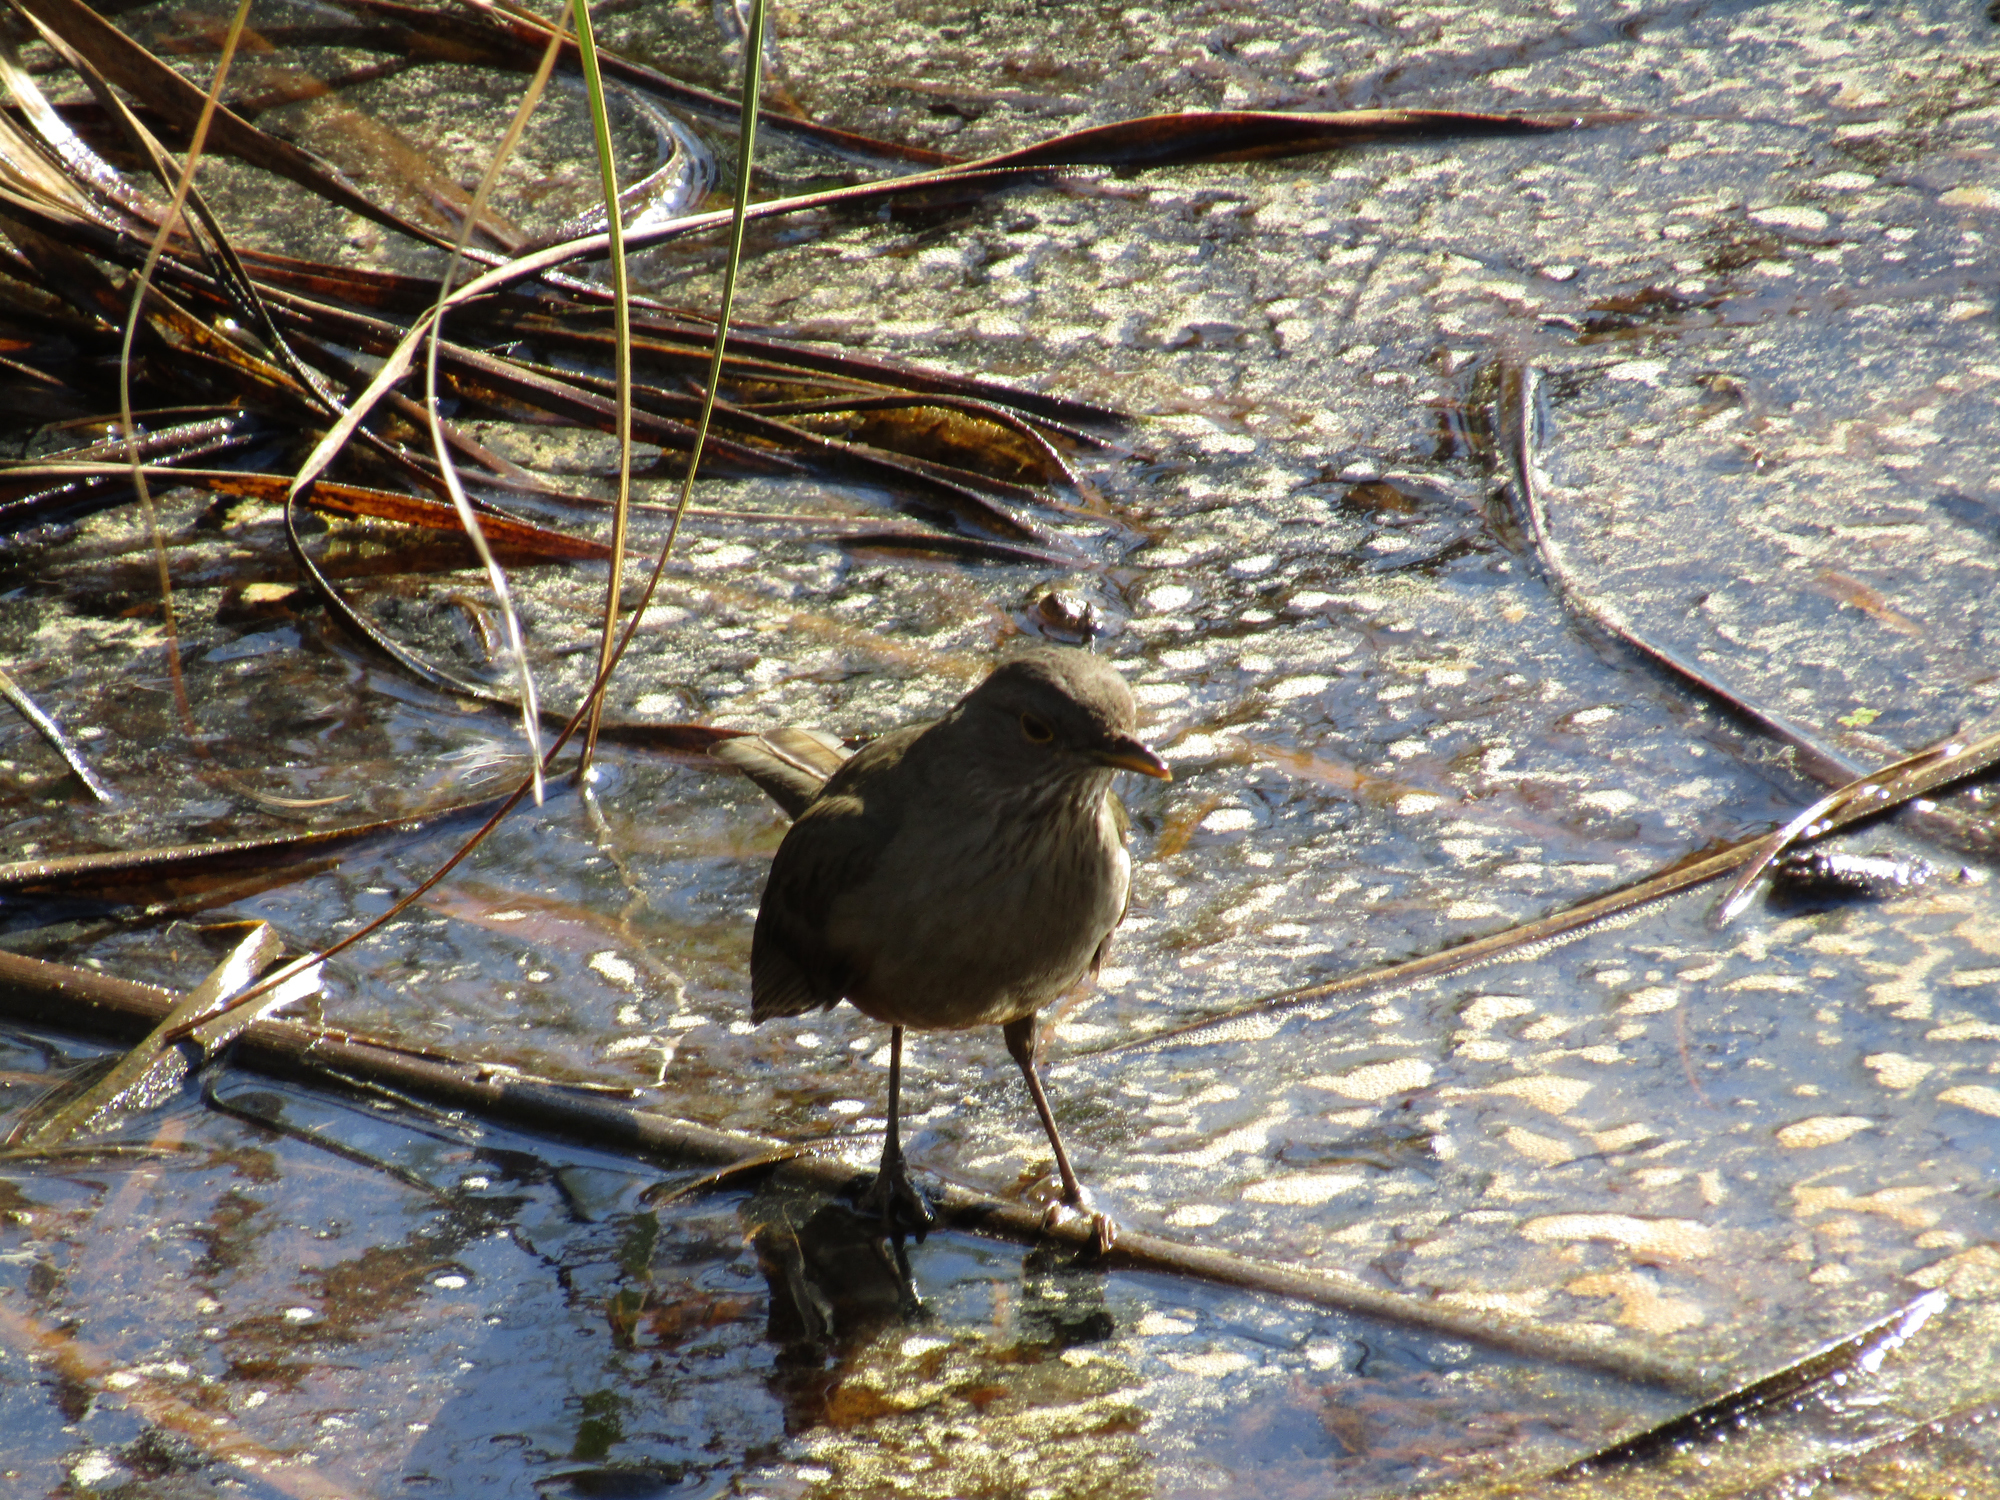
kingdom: Animalia
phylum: Chordata
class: Aves
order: Passeriformes
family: Turdidae
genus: Turdus
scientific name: Turdus rufiventris
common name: Rufous-bellied thrush
